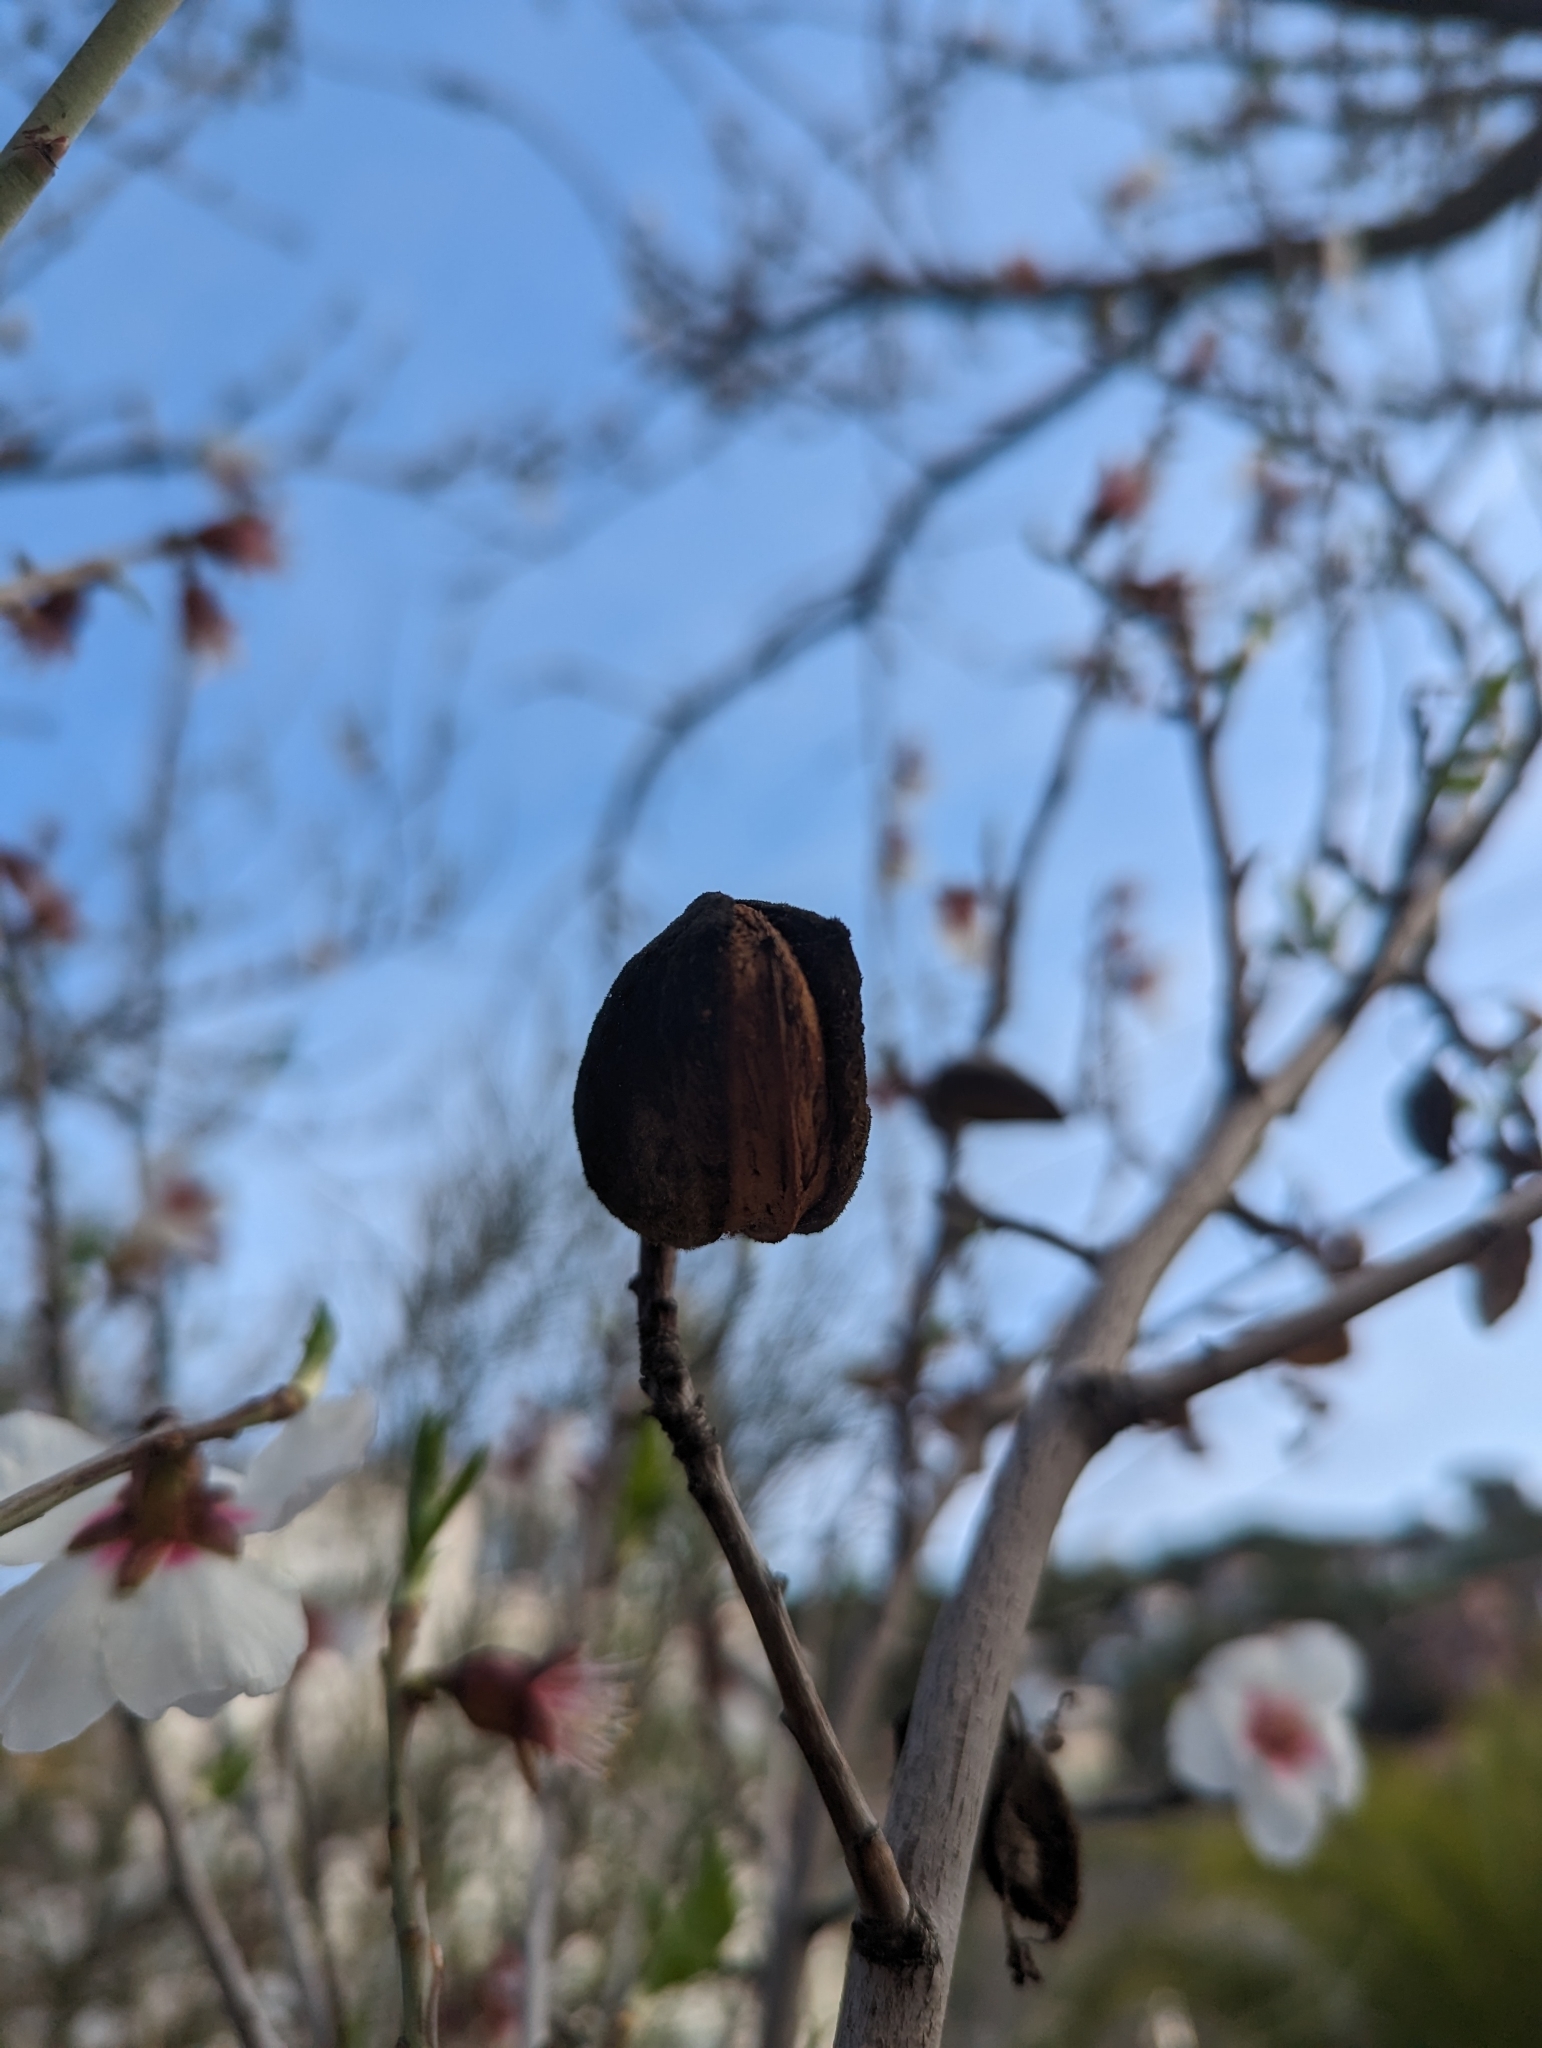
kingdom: Plantae
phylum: Tracheophyta
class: Magnoliopsida
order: Rosales
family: Rosaceae
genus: Prunus
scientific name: Prunus amygdalus
